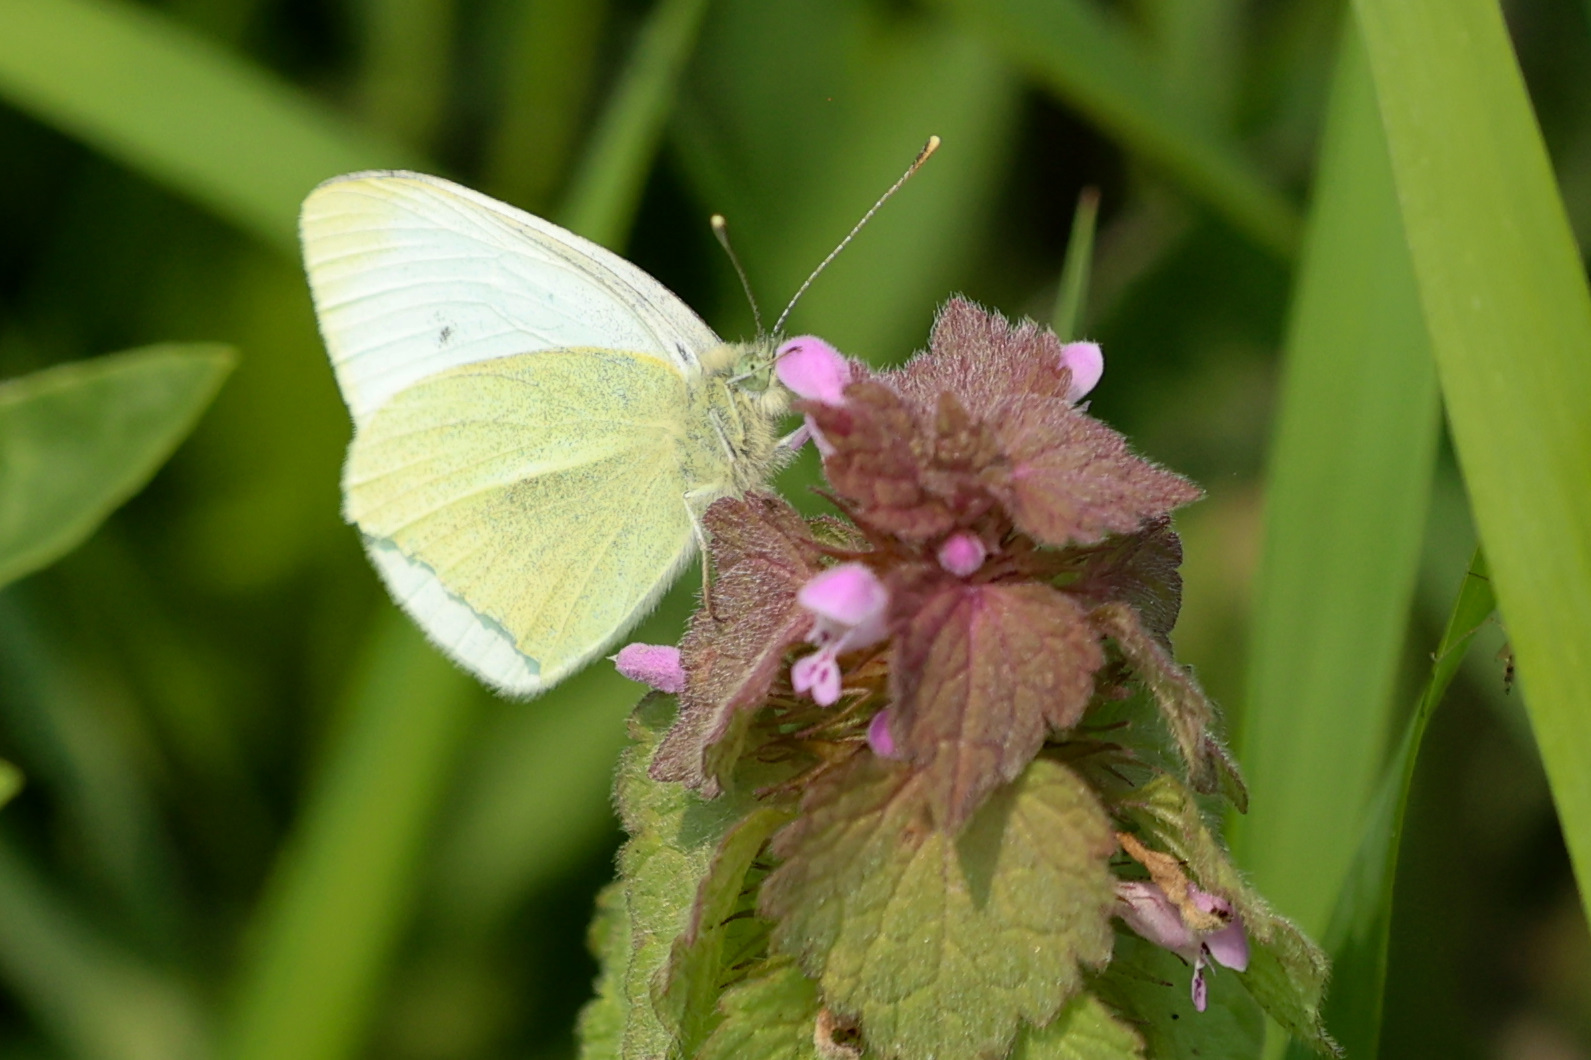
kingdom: Animalia
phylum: Arthropoda
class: Insecta
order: Lepidoptera
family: Pieridae
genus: Pieris
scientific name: Pieris rapae
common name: Small white
